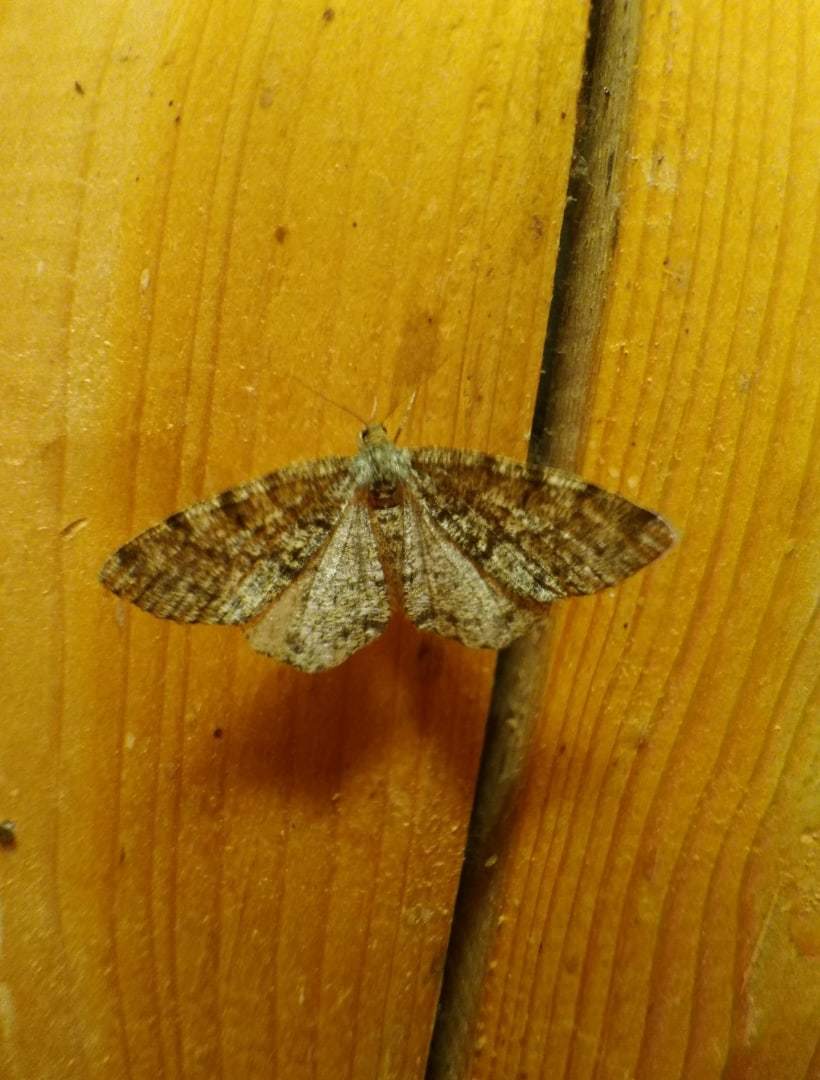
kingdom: Animalia
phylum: Arthropoda
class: Insecta
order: Lepidoptera
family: Geometridae
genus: Deileptenia
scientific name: Deileptenia ribeata
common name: Satin beauty
